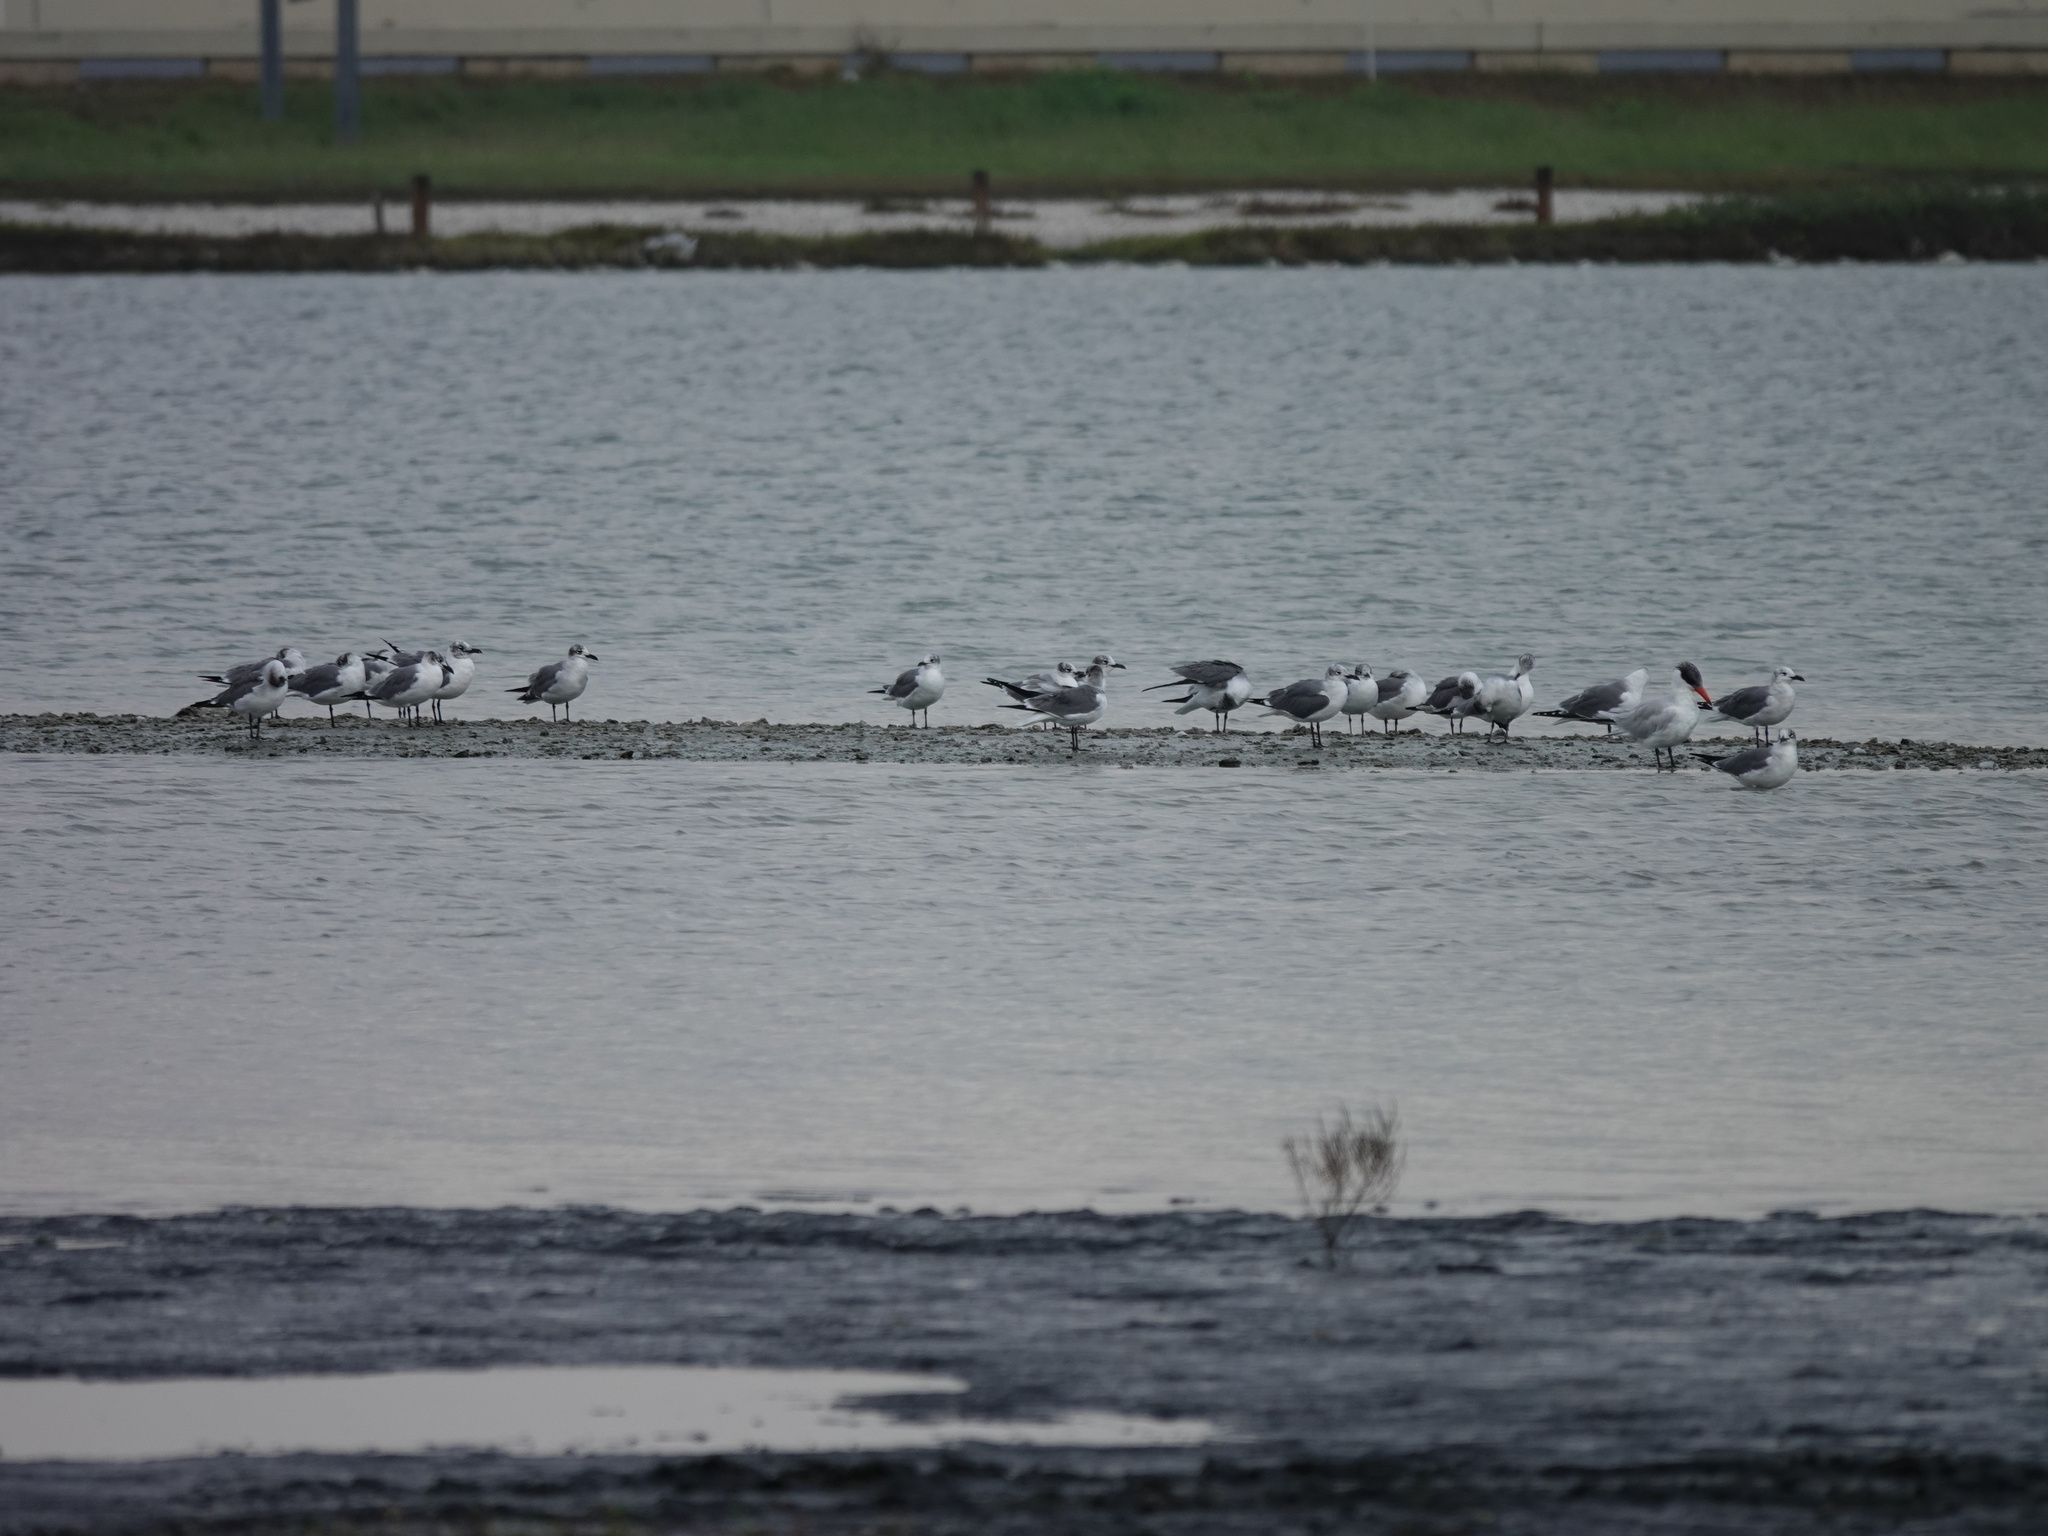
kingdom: Animalia
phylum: Chordata
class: Aves
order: Charadriiformes
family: Laridae
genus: Leucophaeus
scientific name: Leucophaeus atricilla
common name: Laughing gull
